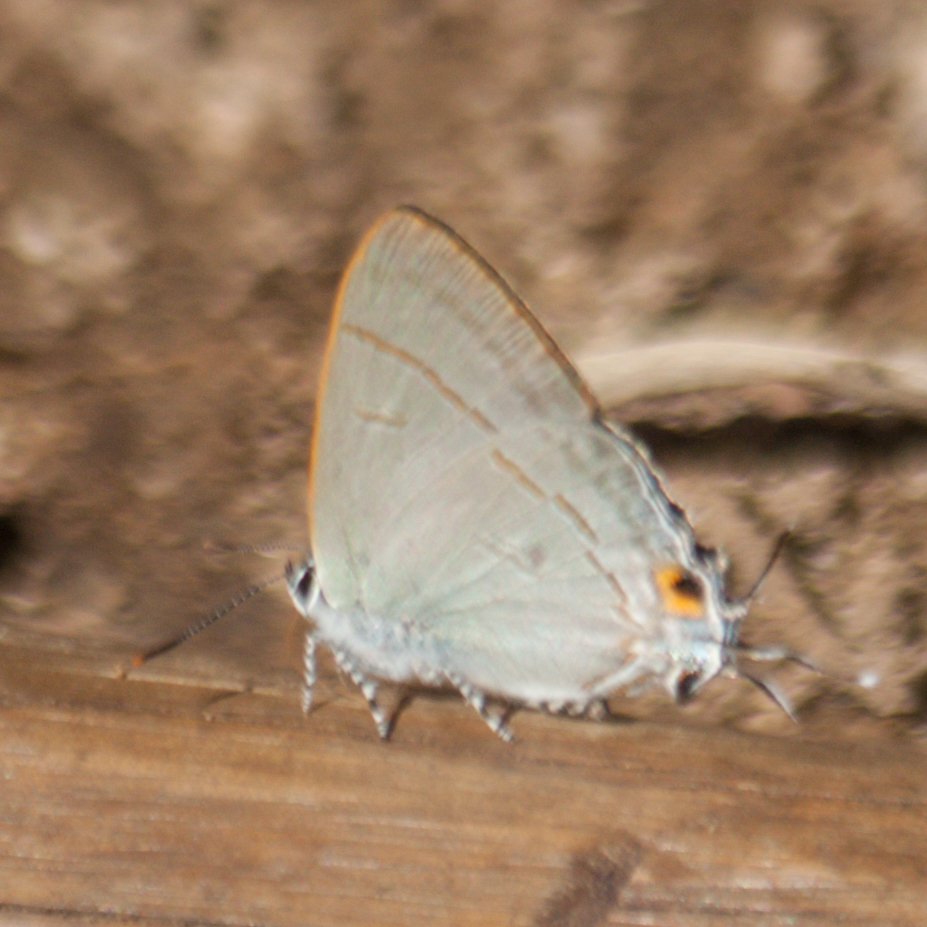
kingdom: Animalia
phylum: Arthropoda
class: Insecta
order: Lepidoptera
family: Lycaenidae
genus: Hypolycaena
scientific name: Hypolycaena erylus
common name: Common tit
